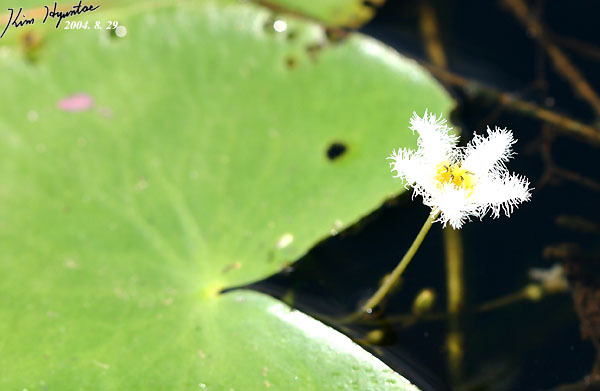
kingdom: Plantae
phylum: Tracheophyta
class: Magnoliopsida
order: Asterales
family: Menyanthaceae
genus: Nymphoides
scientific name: Nymphoides indica
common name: Water-snowflake
